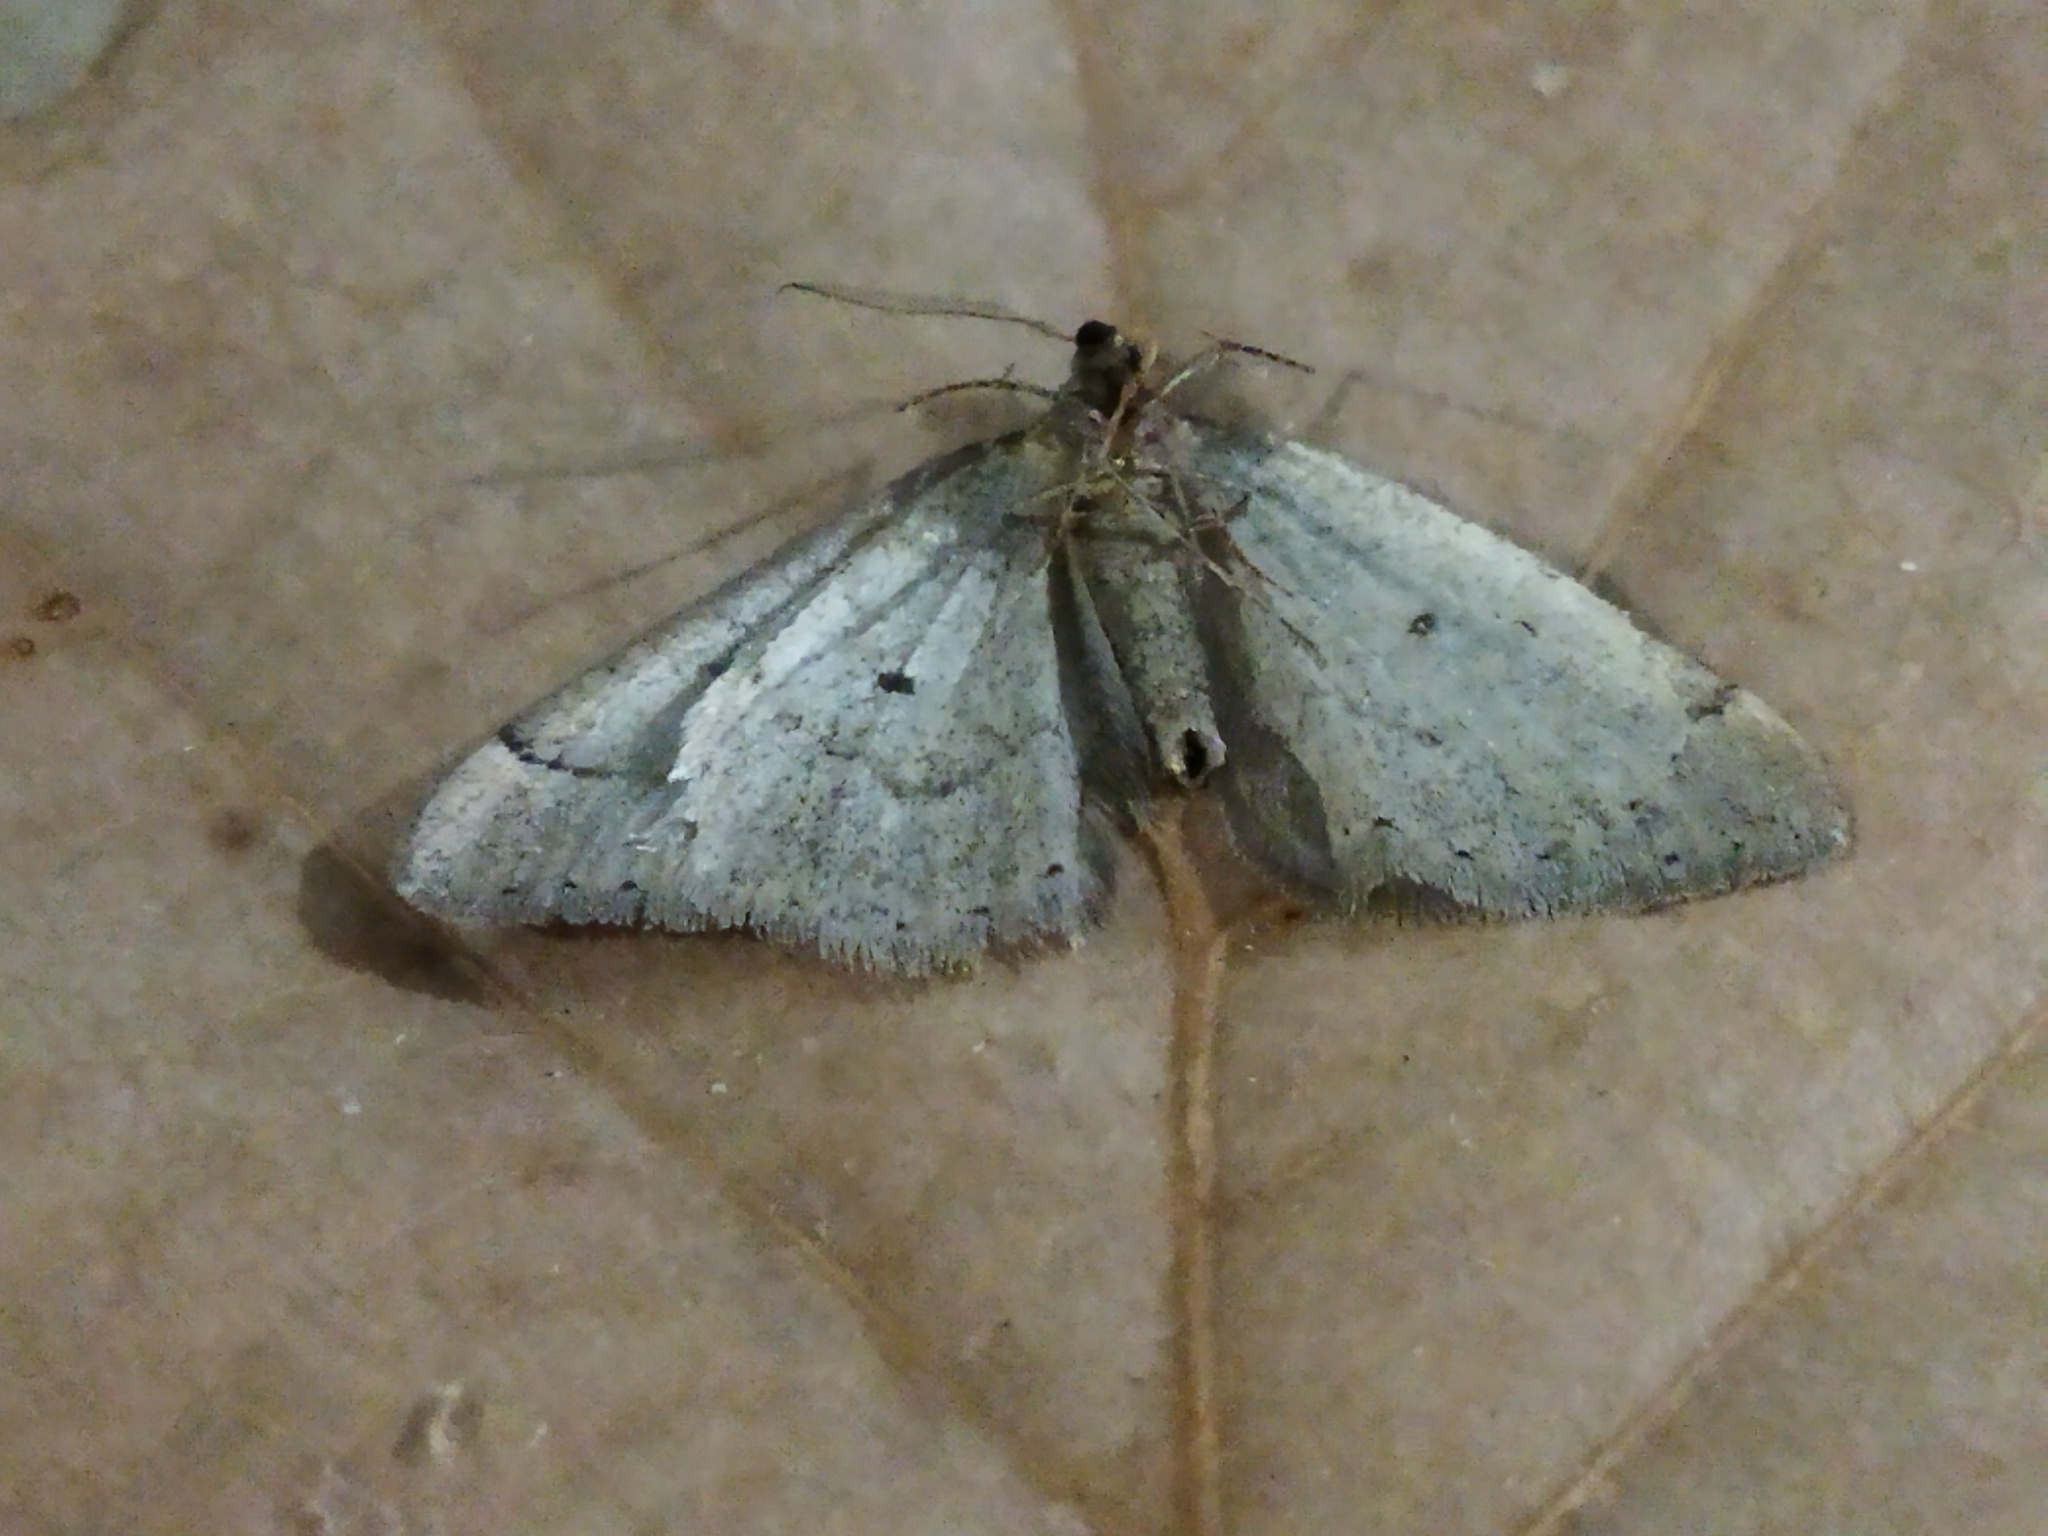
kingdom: Animalia
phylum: Arthropoda
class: Insecta
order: Lepidoptera
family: Geometridae
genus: Theria
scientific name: Theria rupicapraria
